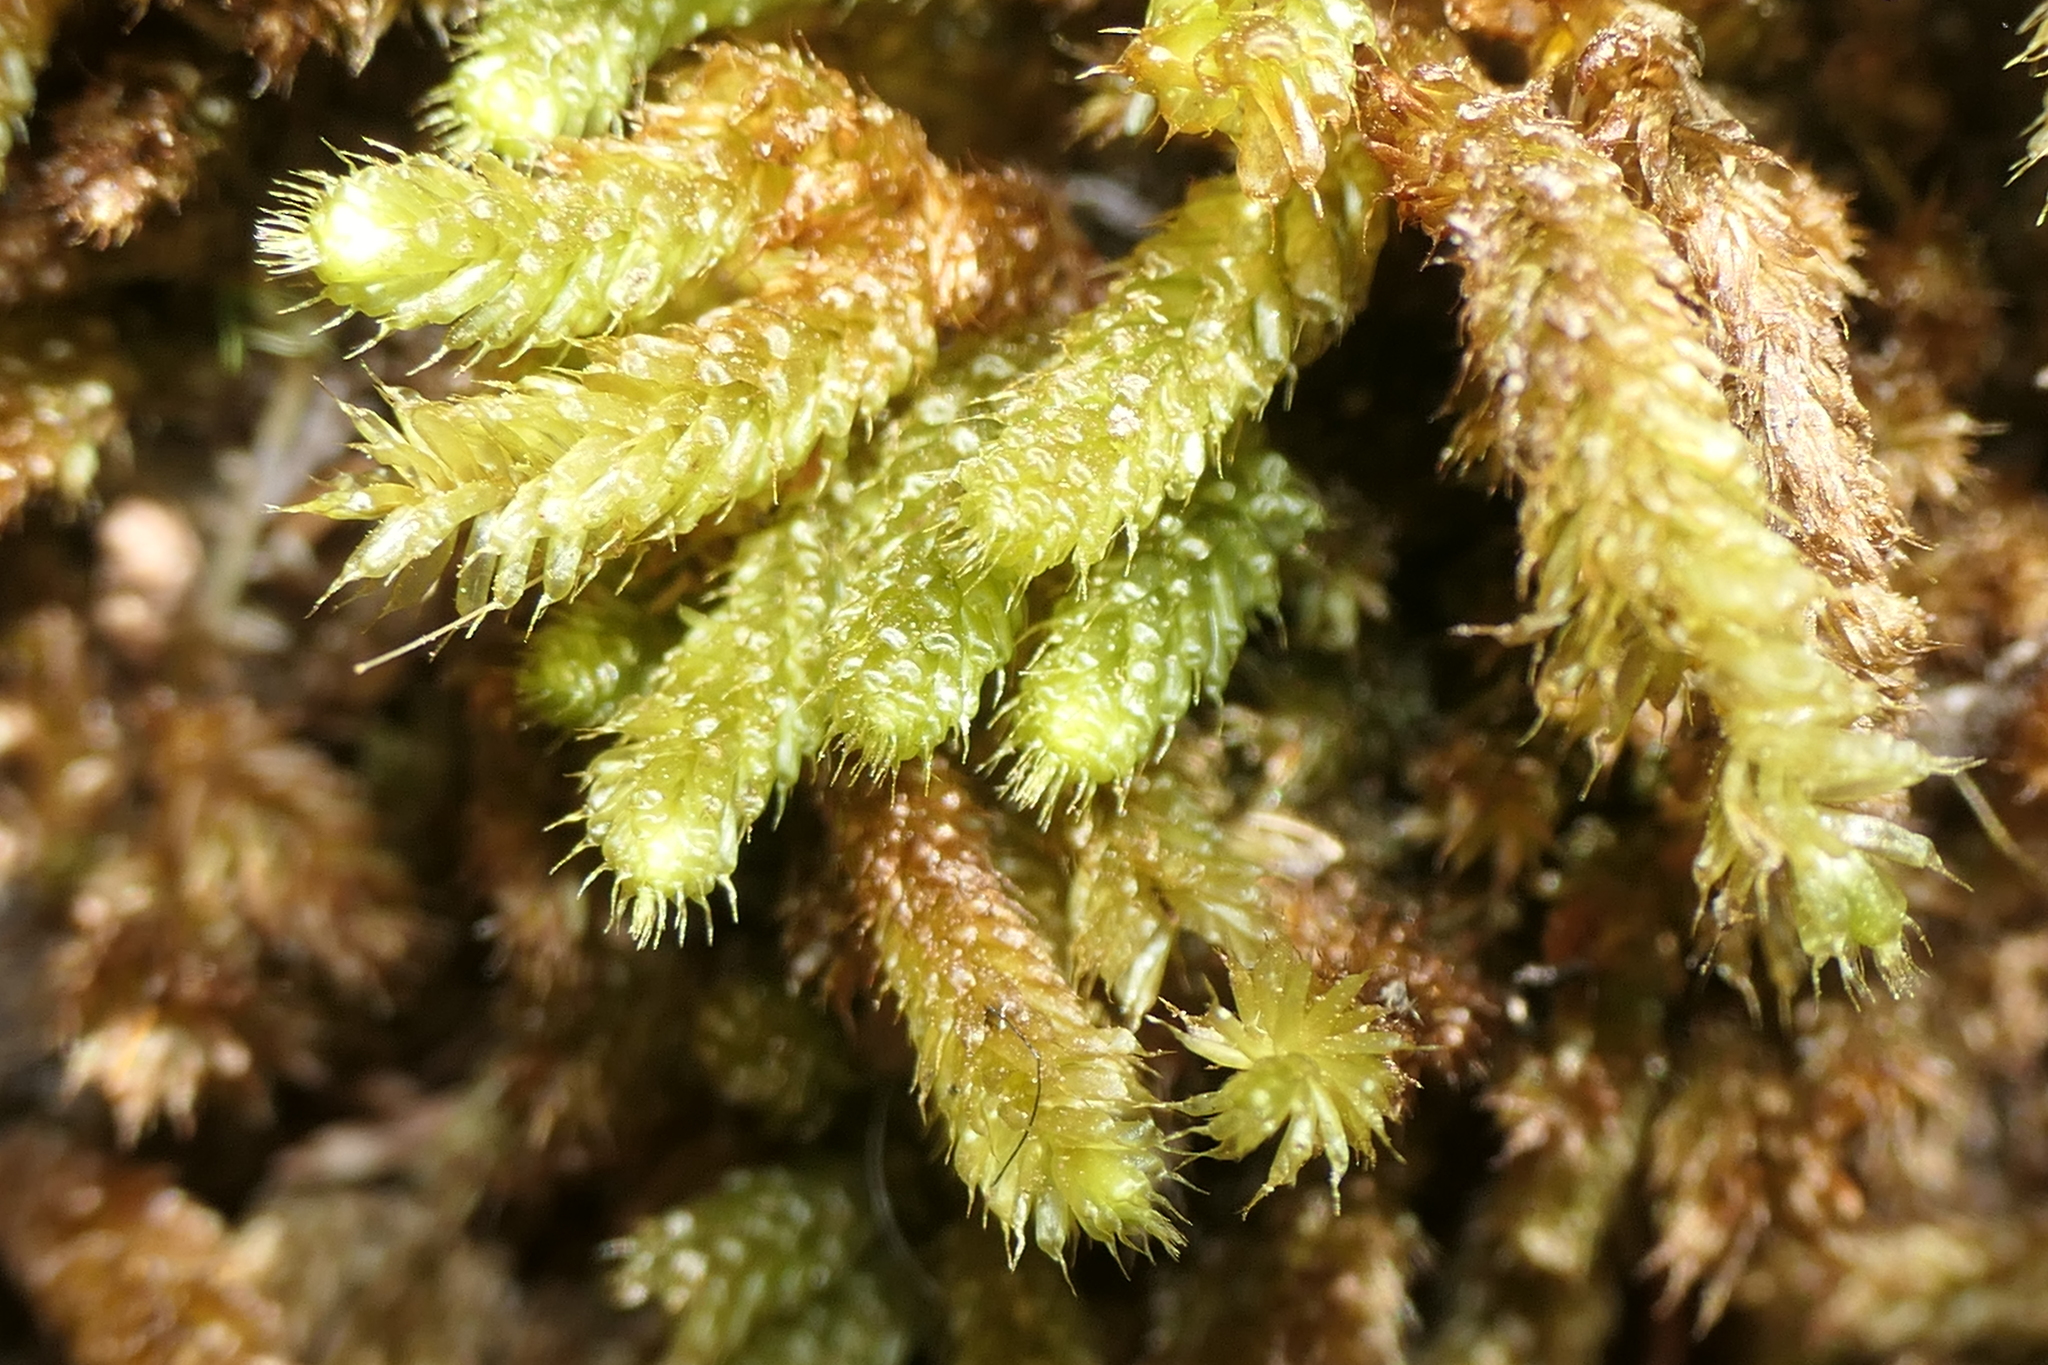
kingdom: Plantae
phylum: Bryophyta
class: Bryopsida
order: Hypnales
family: Myuriaceae
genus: Myurium
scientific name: Myurium hochstetteri
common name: Hare-tail moss
